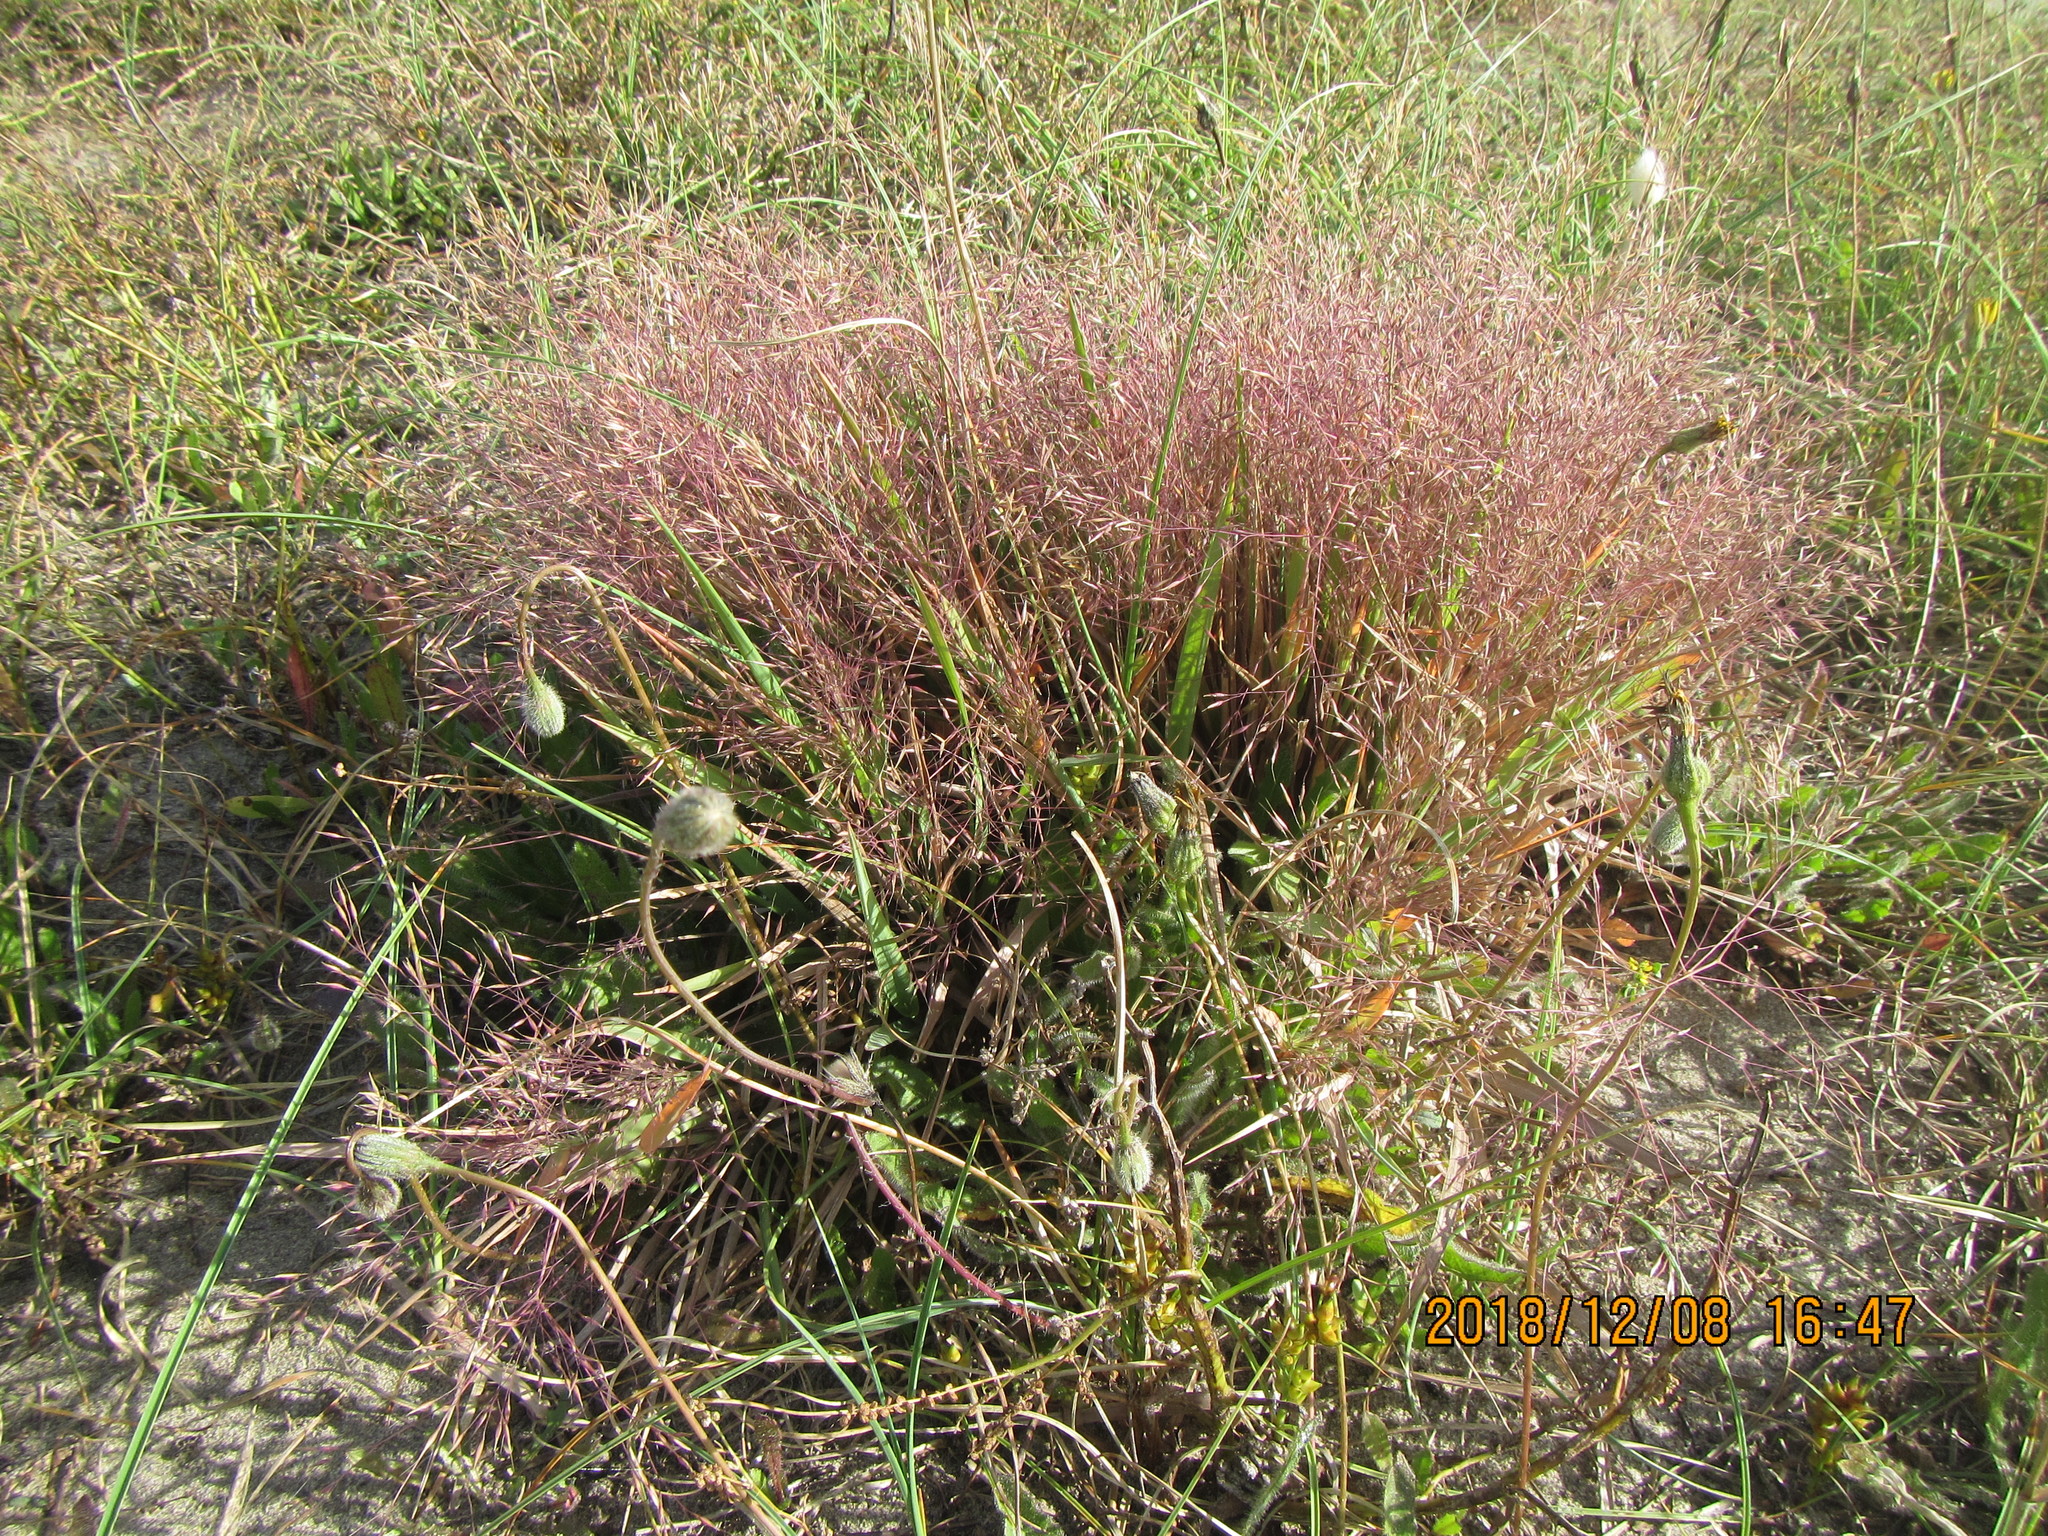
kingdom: Plantae
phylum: Tracheophyta
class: Liliopsida
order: Poales
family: Poaceae
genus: Lachnagrostis
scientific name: Lachnagrostis billardierei
